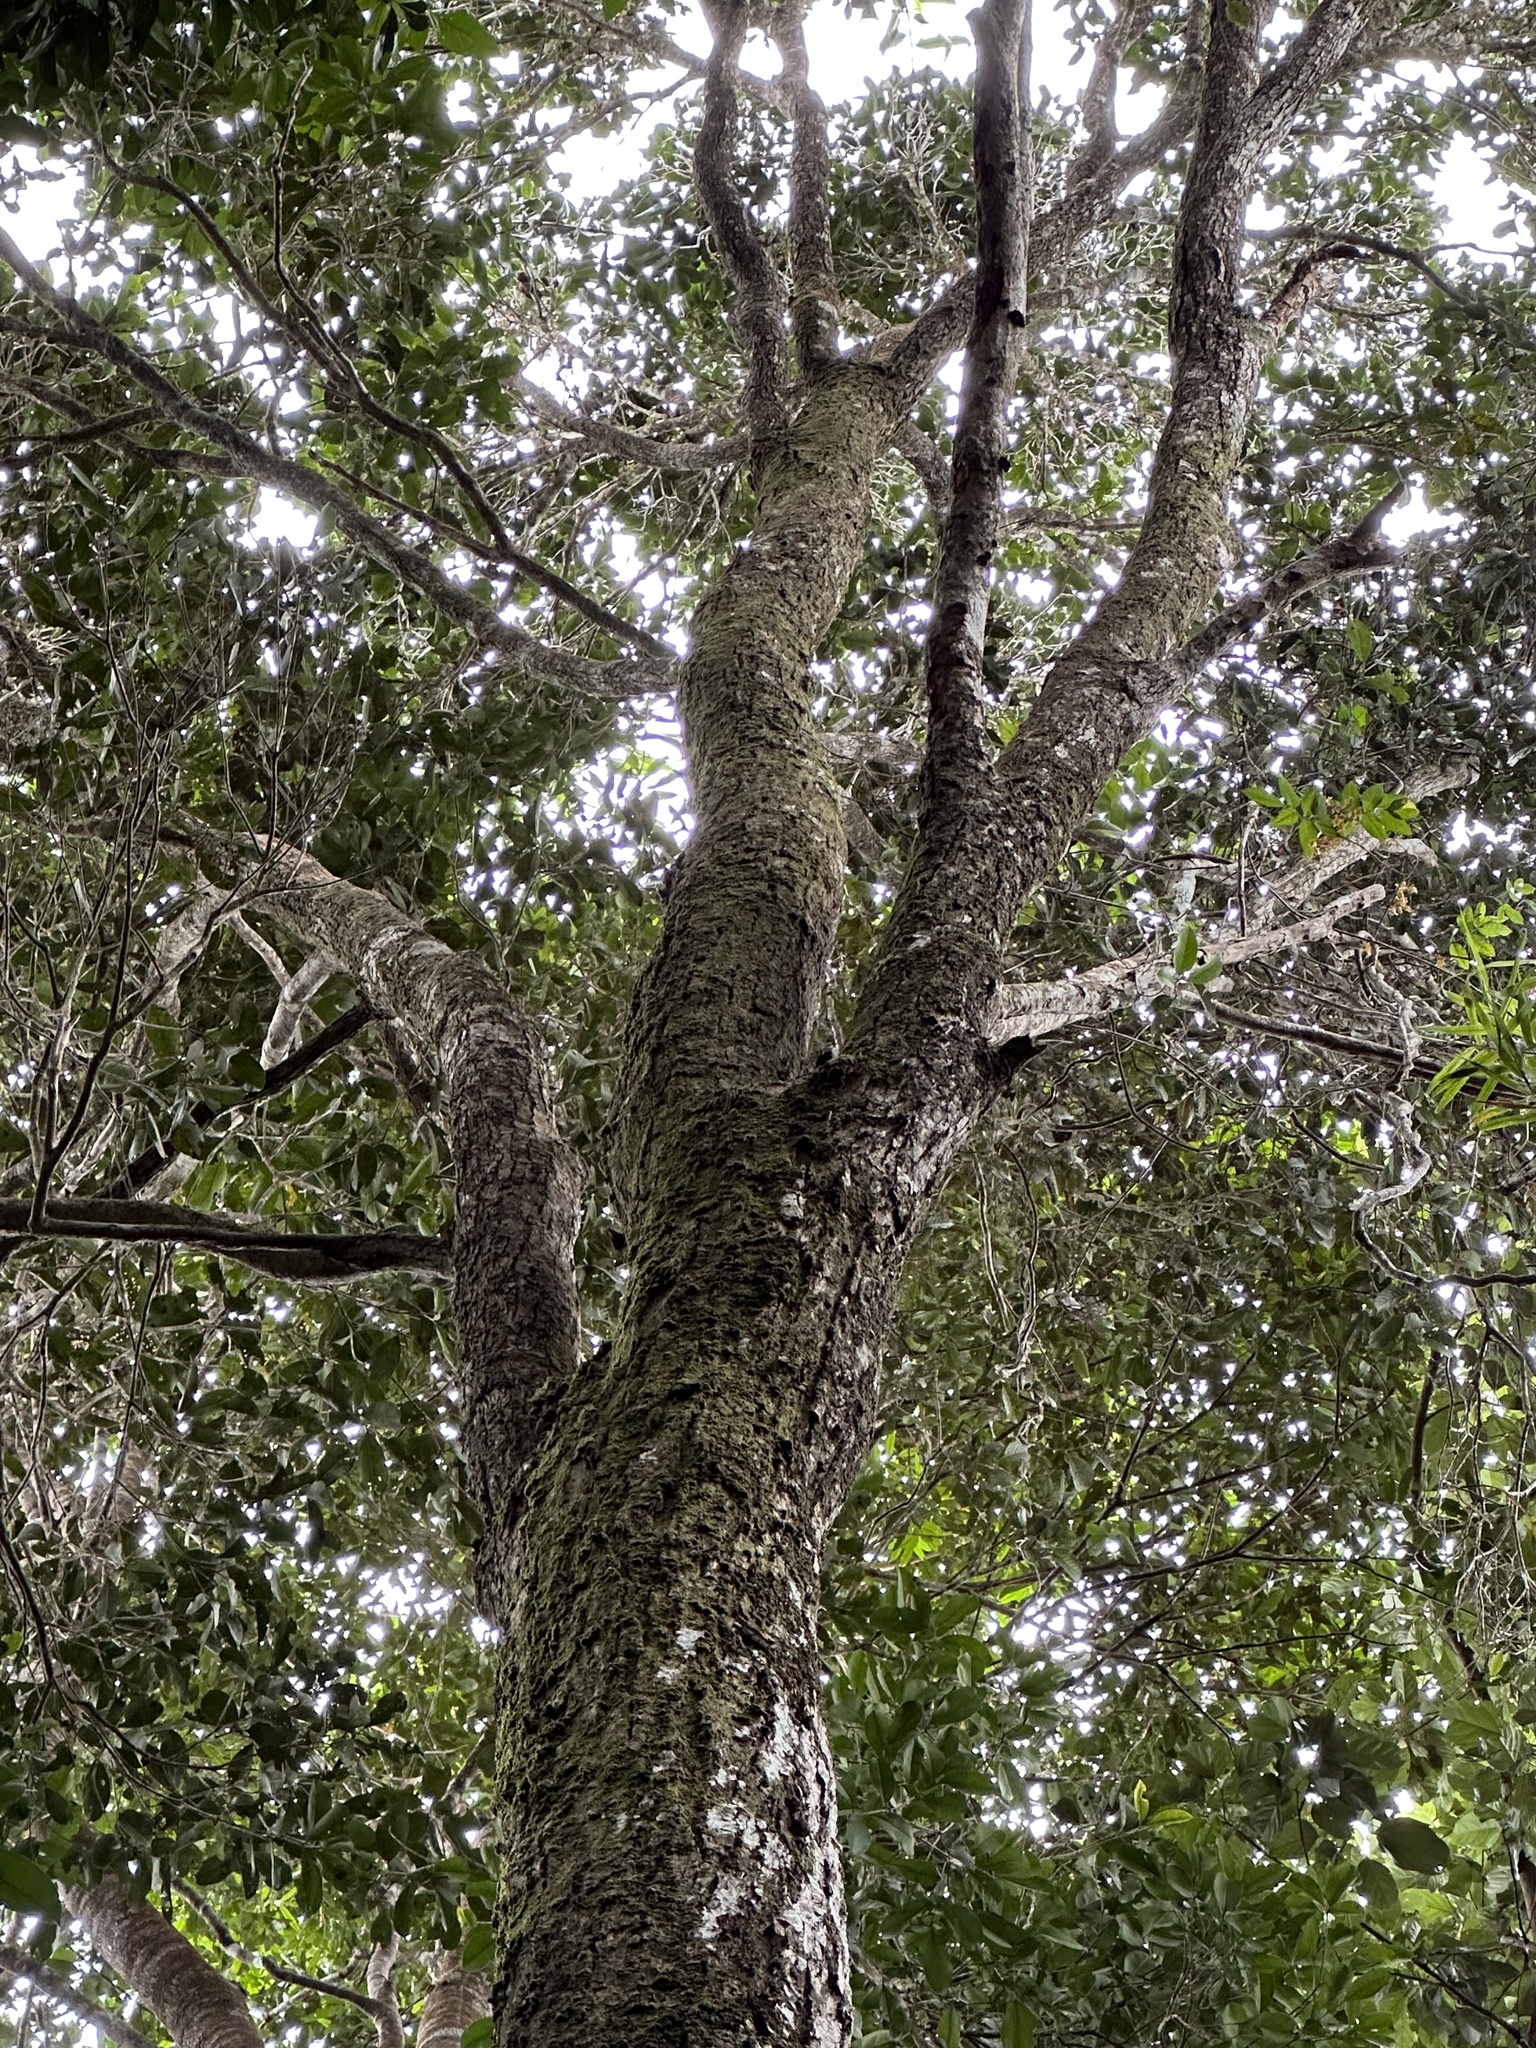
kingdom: Plantae
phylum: Tracheophyta
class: Magnoliopsida
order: Myrtales
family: Myrtaceae
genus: Syzygium
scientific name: Syzygium kuranda
